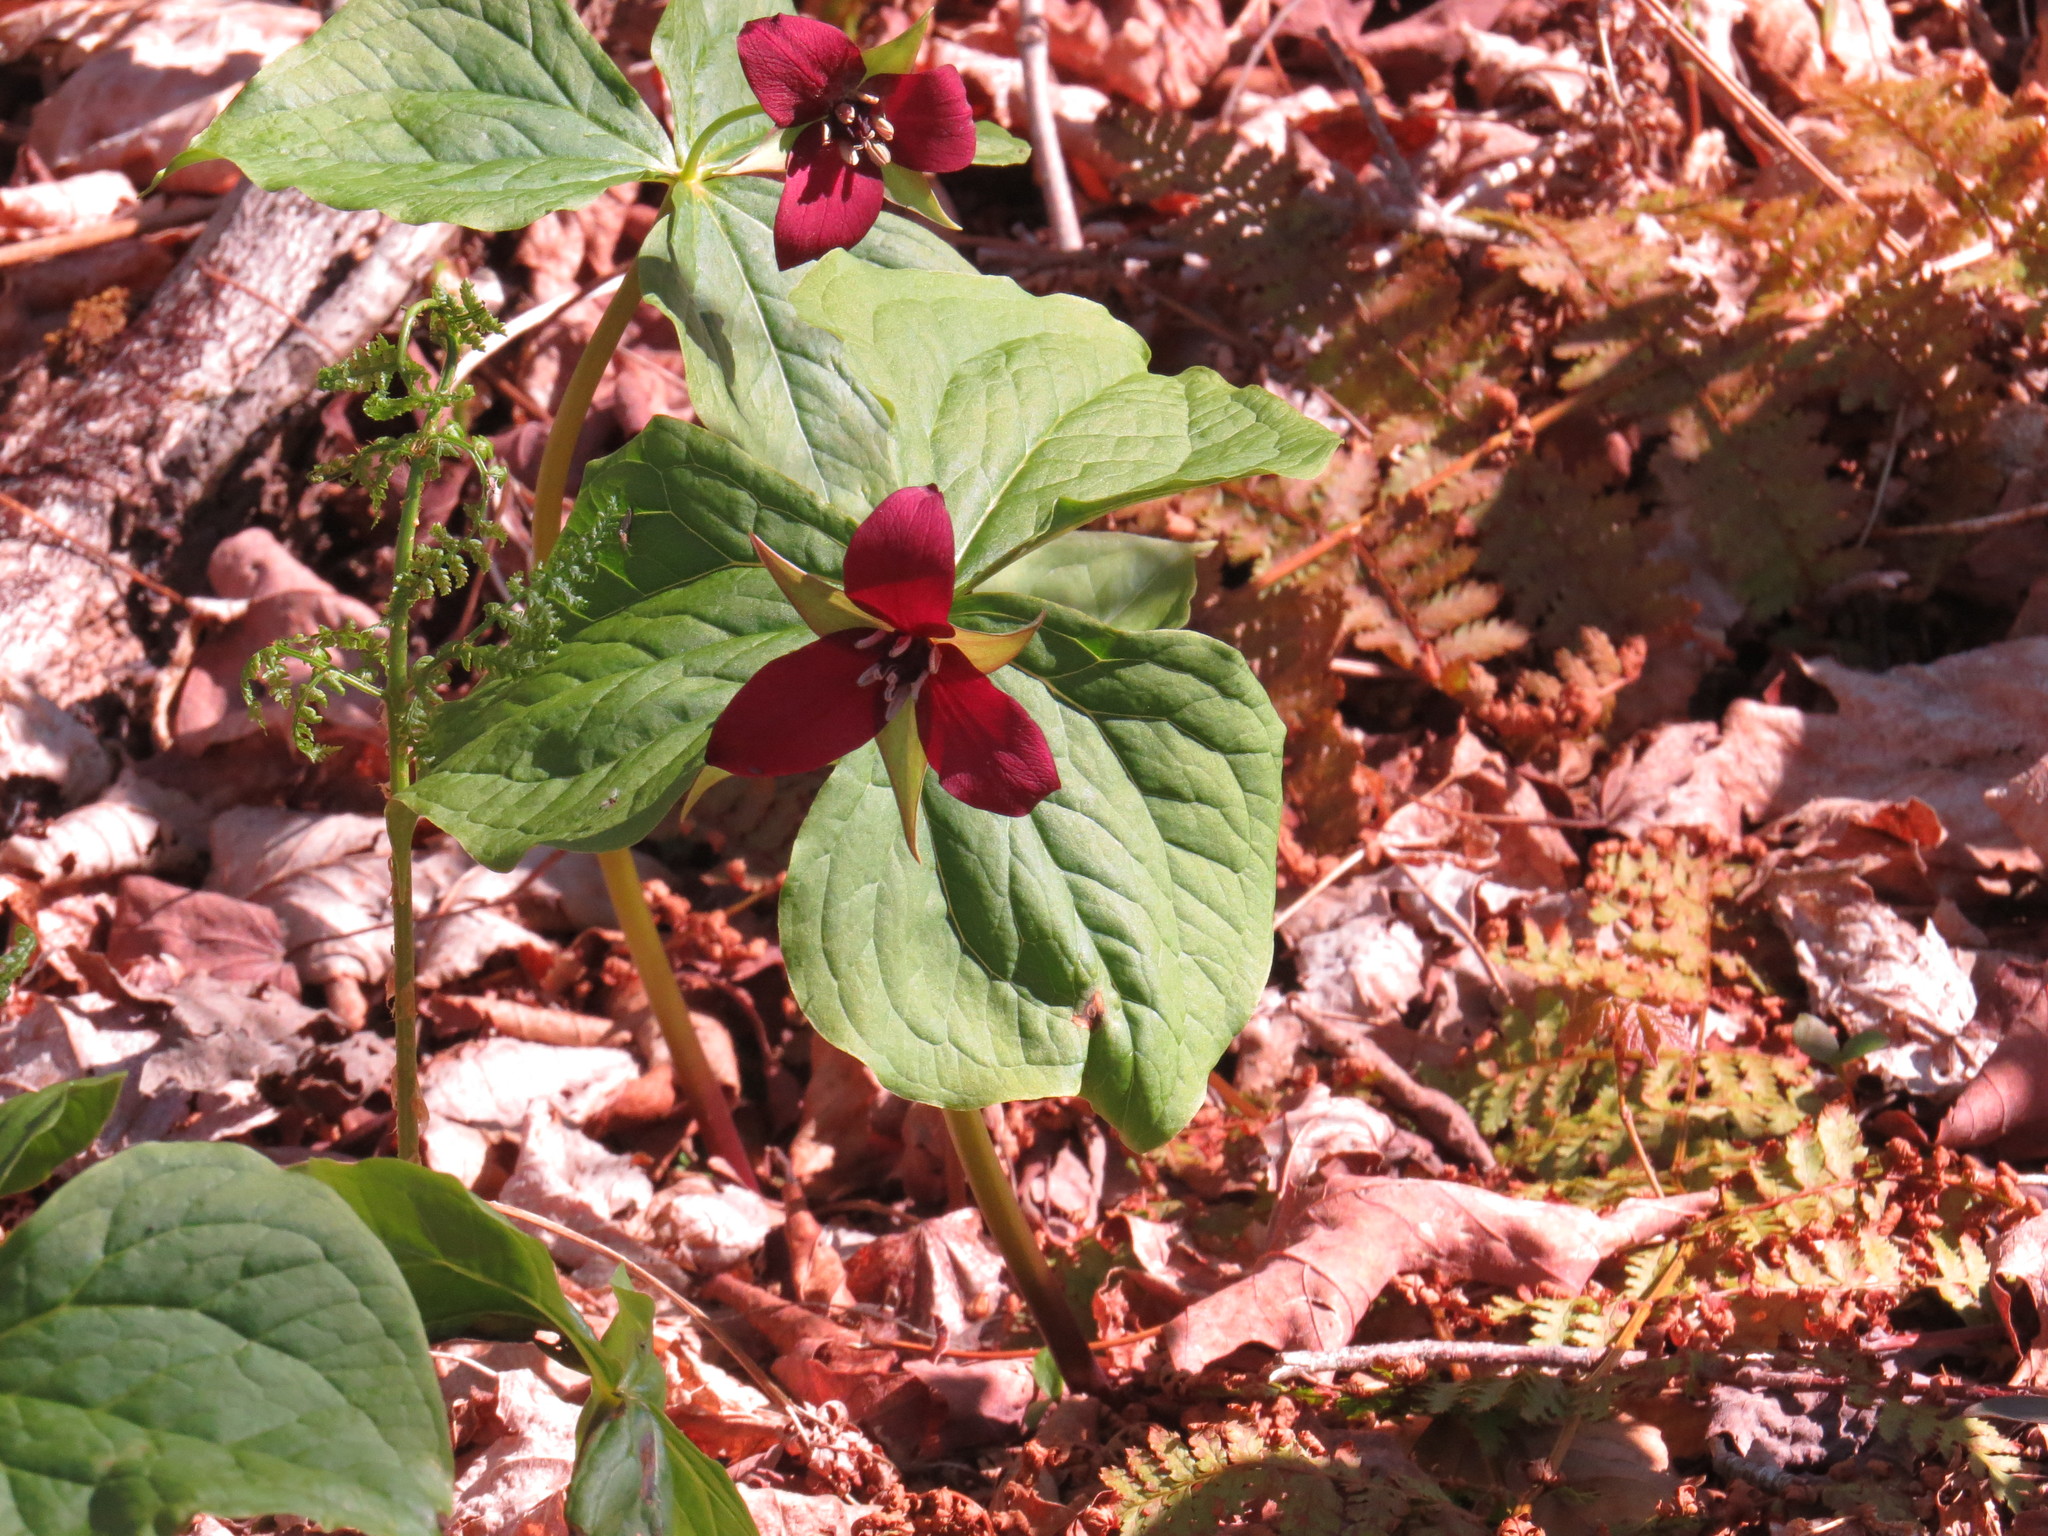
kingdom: Plantae
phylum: Tracheophyta
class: Liliopsida
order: Liliales
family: Melanthiaceae
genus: Trillium
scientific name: Trillium erectum
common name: Purple trillium
